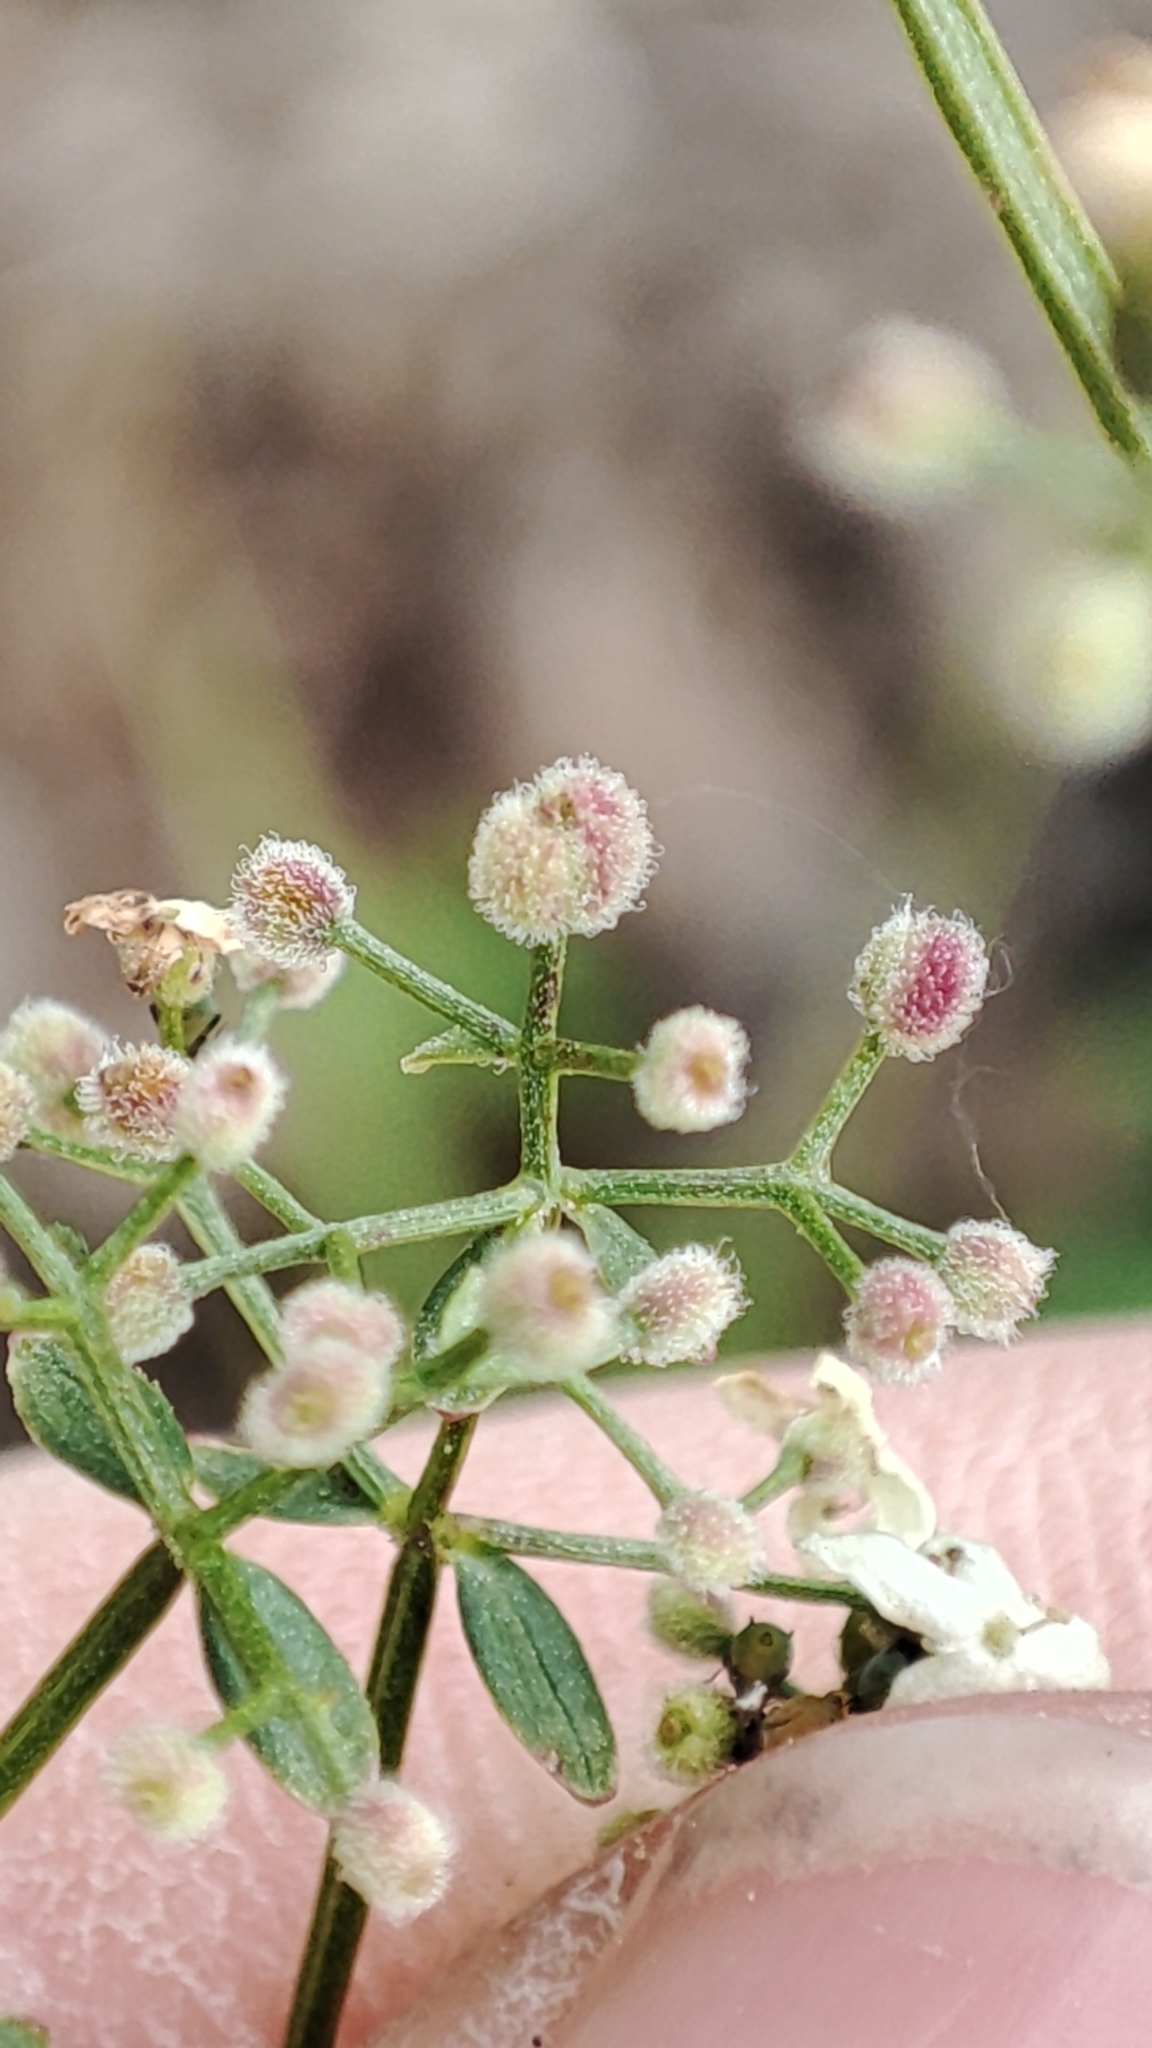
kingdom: Plantae
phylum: Tracheophyta
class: Magnoliopsida
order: Gentianales
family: Rubiaceae
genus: Galium
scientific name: Galium boreale
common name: Northern bedstraw
